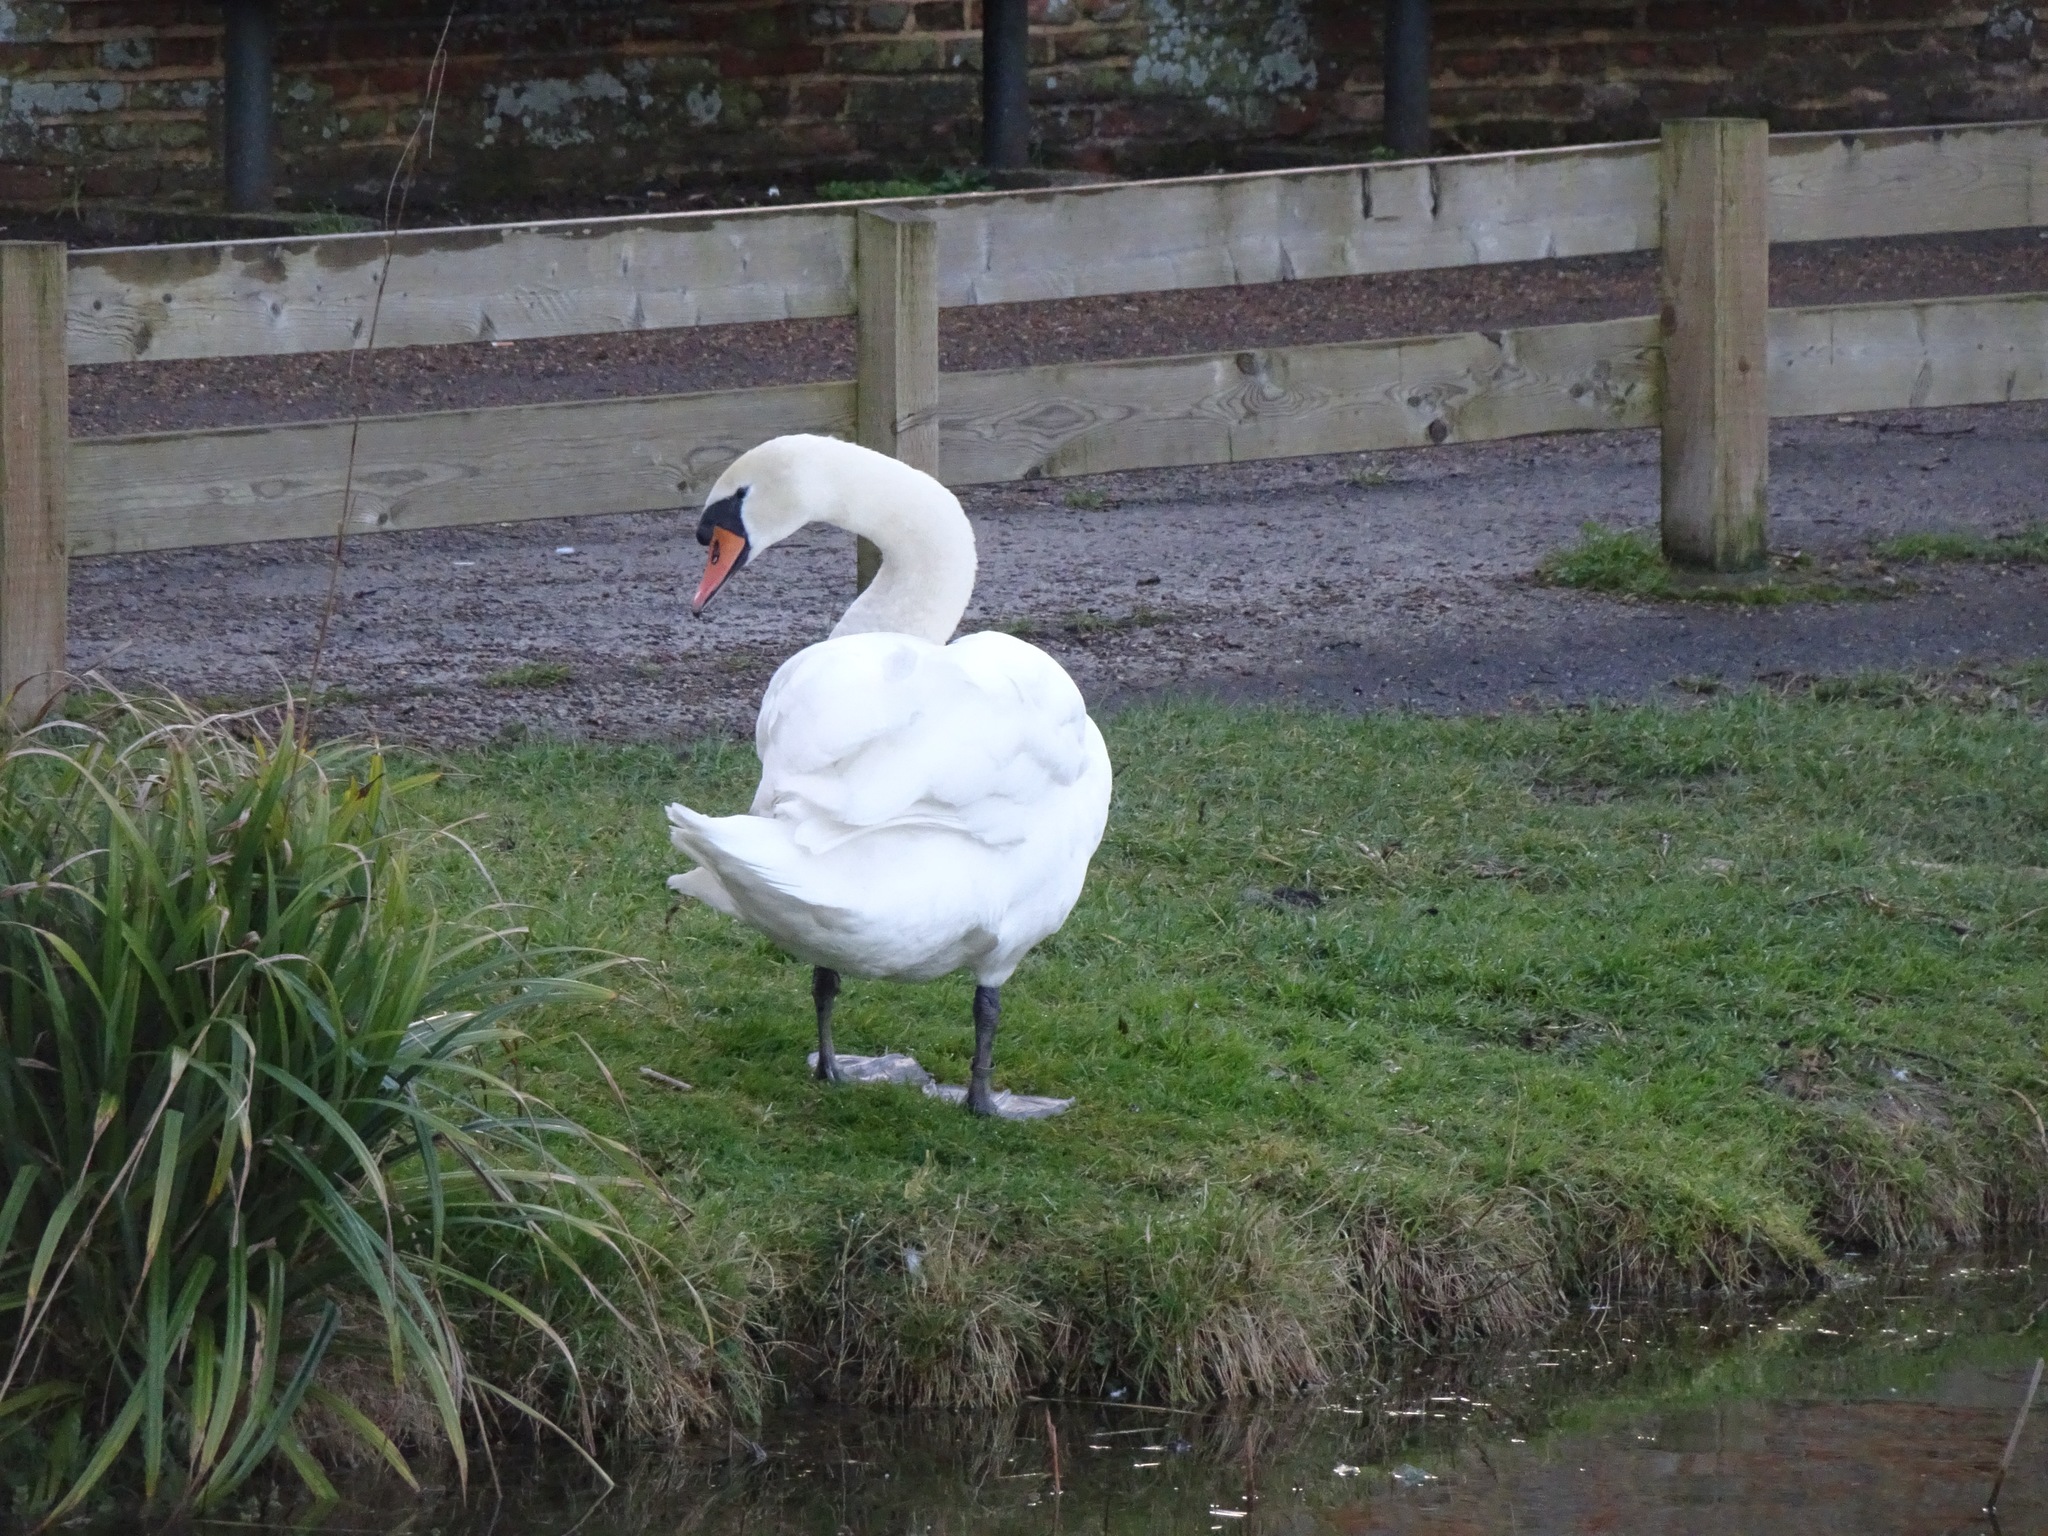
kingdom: Animalia
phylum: Chordata
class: Aves
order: Anseriformes
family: Anatidae
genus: Cygnus
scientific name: Cygnus olor
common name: Mute swan
